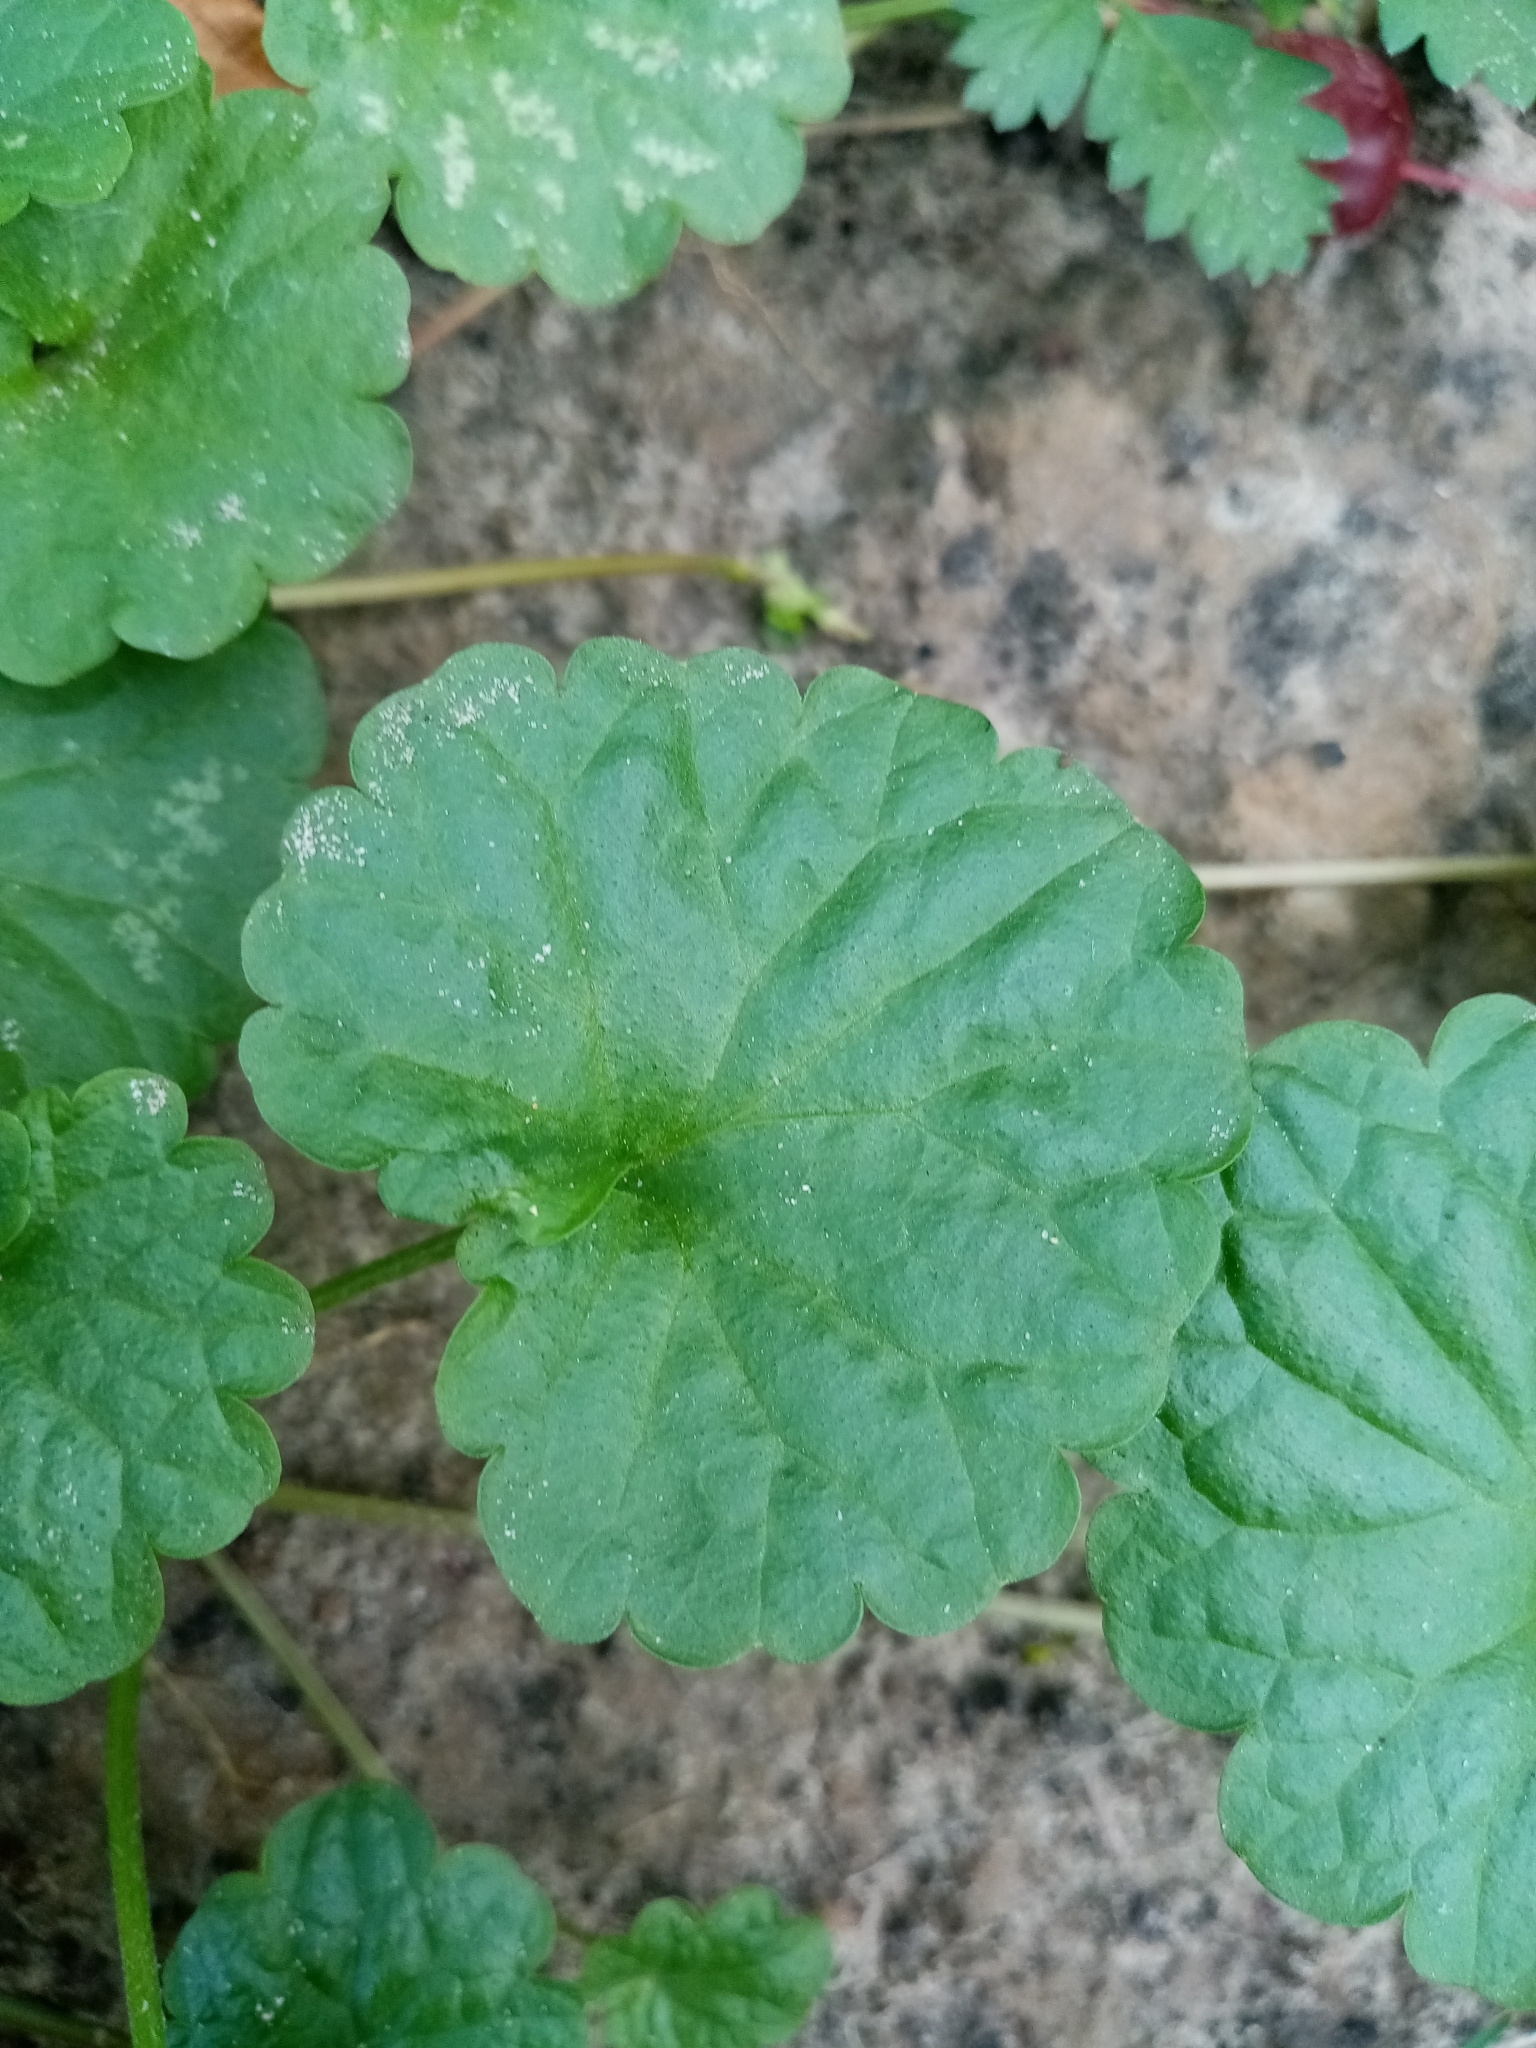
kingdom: Plantae
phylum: Tracheophyta
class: Magnoliopsida
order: Lamiales
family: Lamiaceae
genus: Glechoma
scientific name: Glechoma hederacea
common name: Ground ivy
